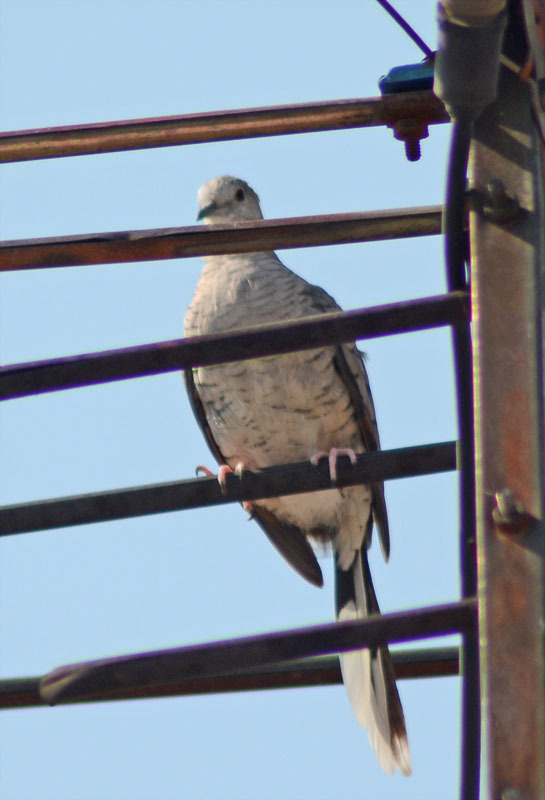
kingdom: Animalia
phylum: Chordata
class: Aves
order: Columbiformes
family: Columbidae
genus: Columbina
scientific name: Columbina inca
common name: Inca dove
